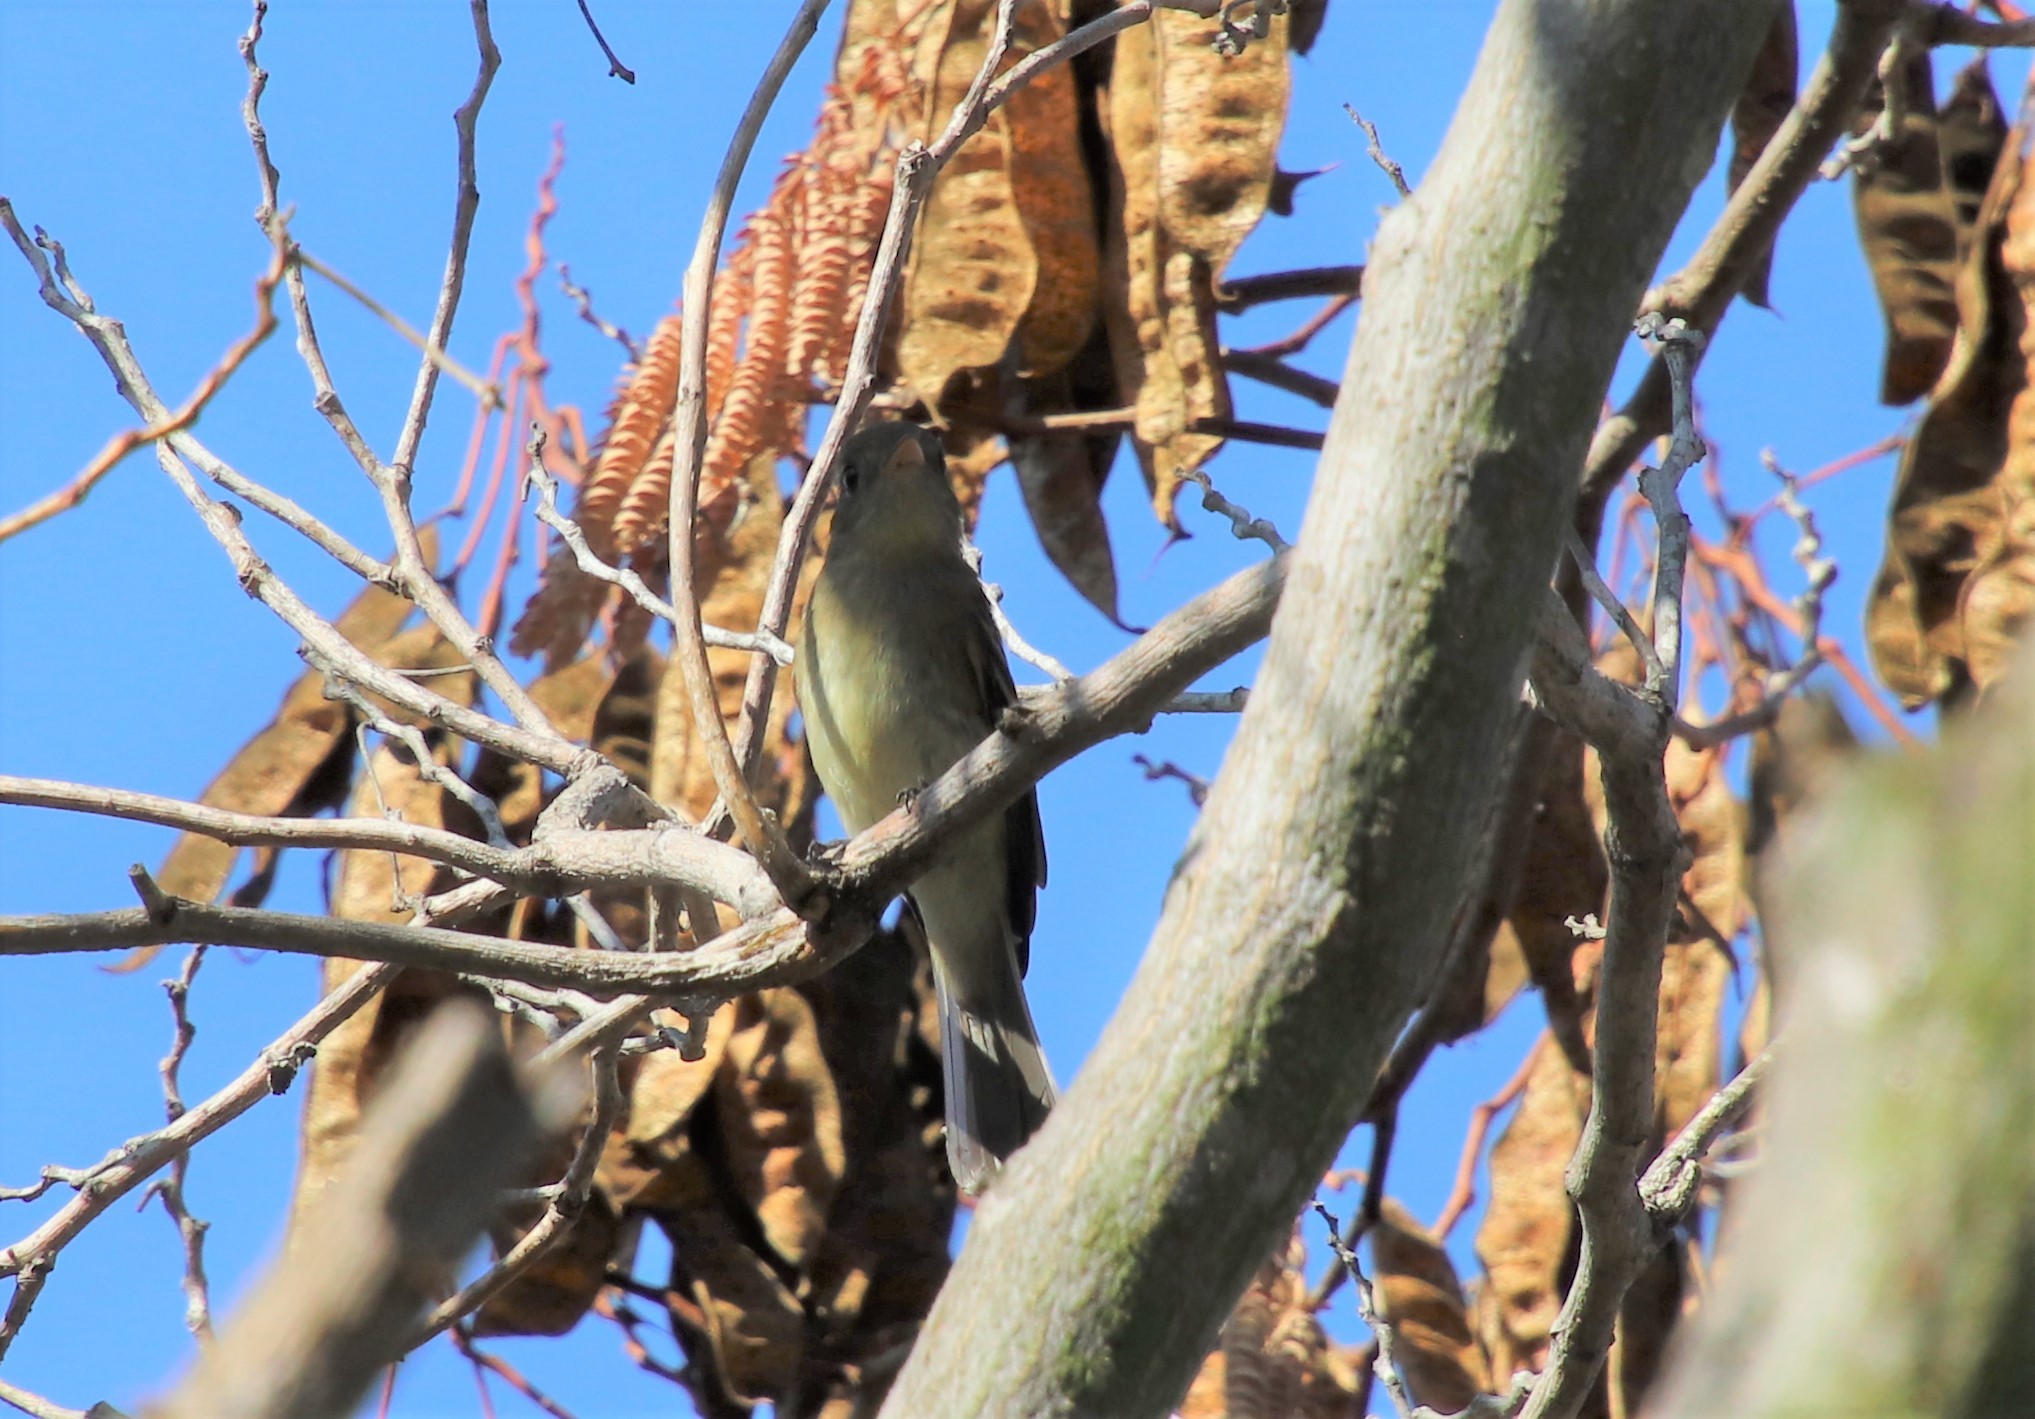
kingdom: Animalia
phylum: Chordata
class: Aves
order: Passeriformes
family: Tyrannidae
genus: Empidonax
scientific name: Empidonax difficilis
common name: Pacific-slope flycatcher
